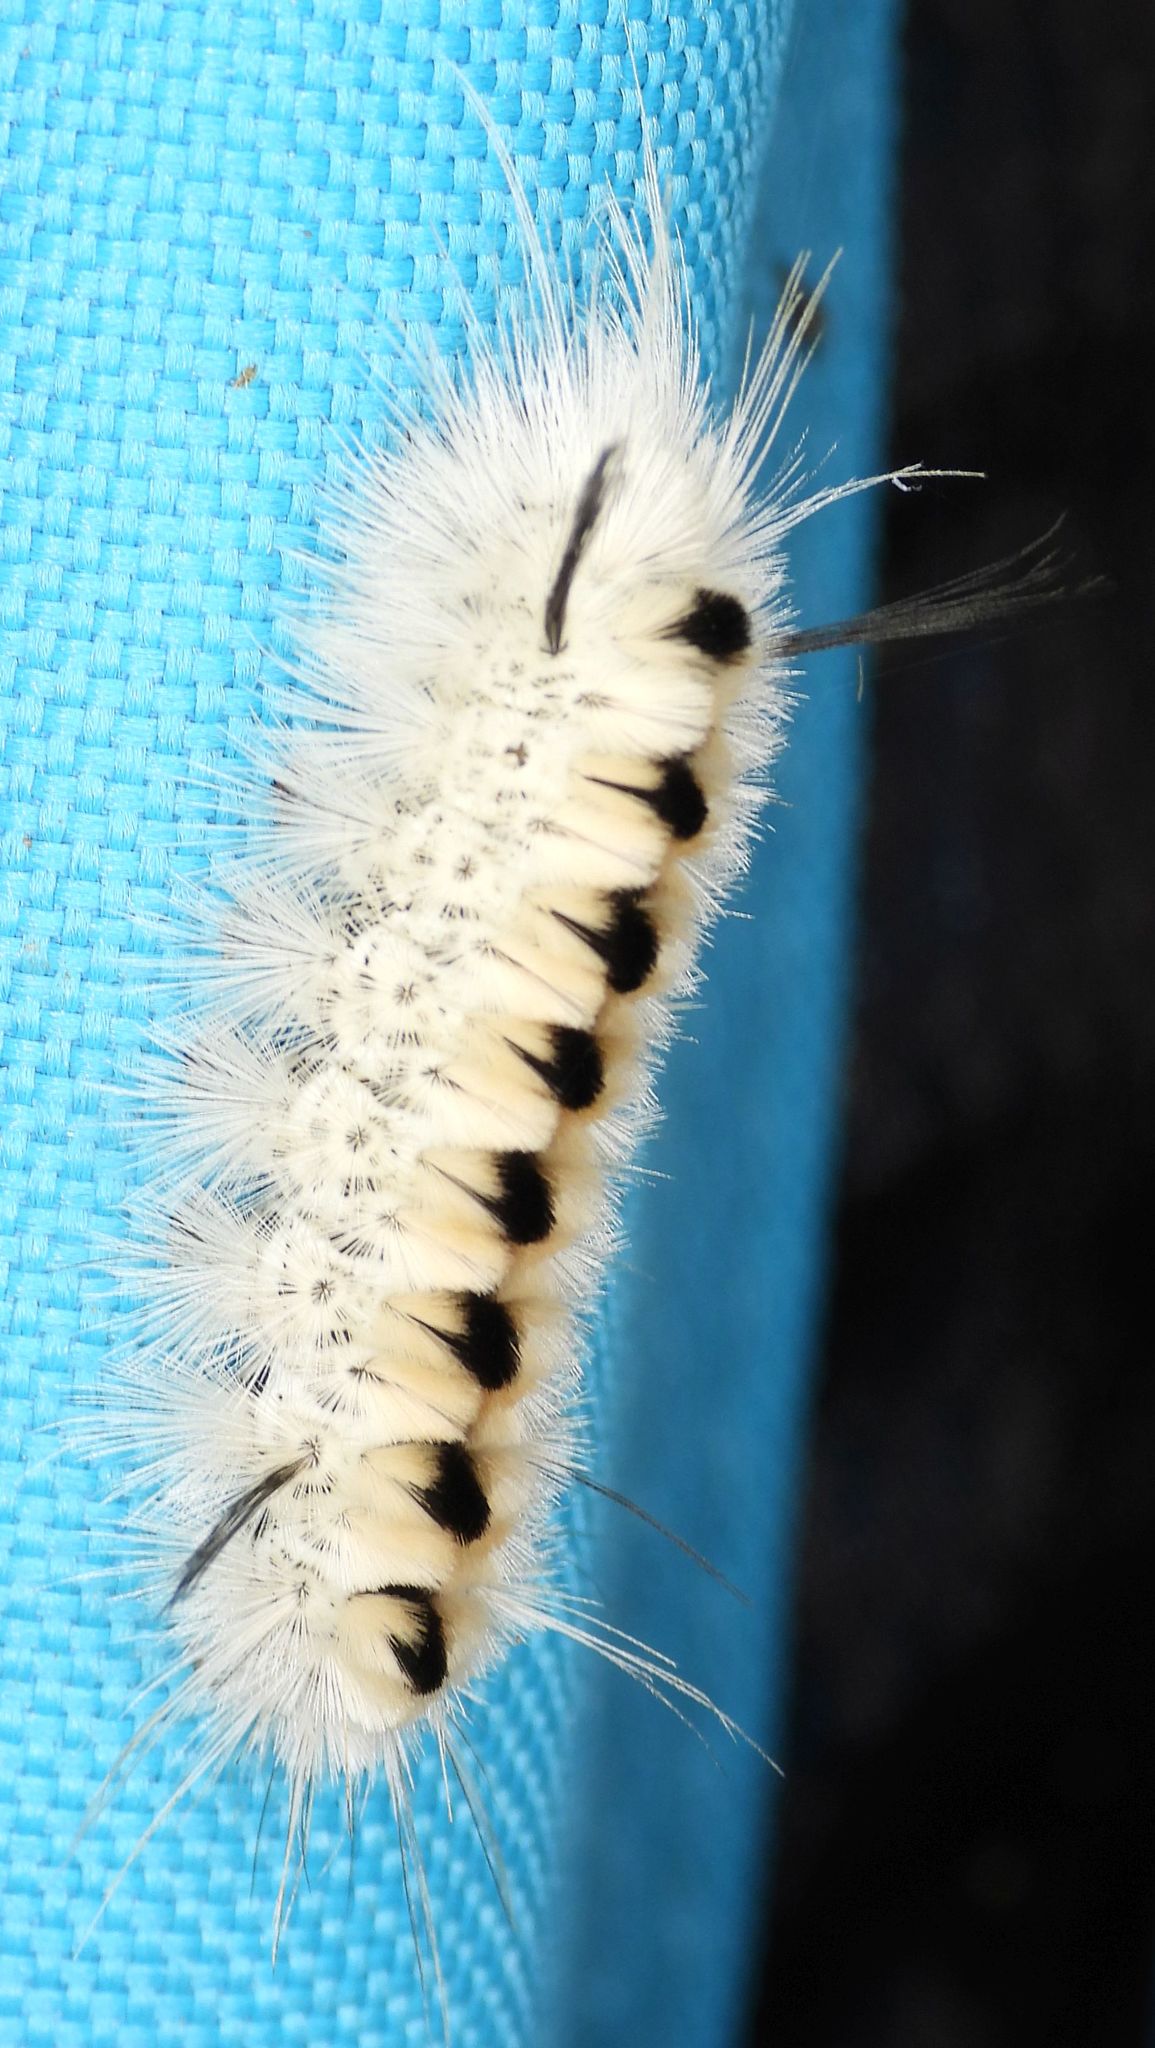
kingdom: Animalia
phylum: Arthropoda
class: Insecta
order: Lepidoptera
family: Erebidae
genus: Lophocampa
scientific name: Lophocampa caryae
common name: Hickory tussock moth
